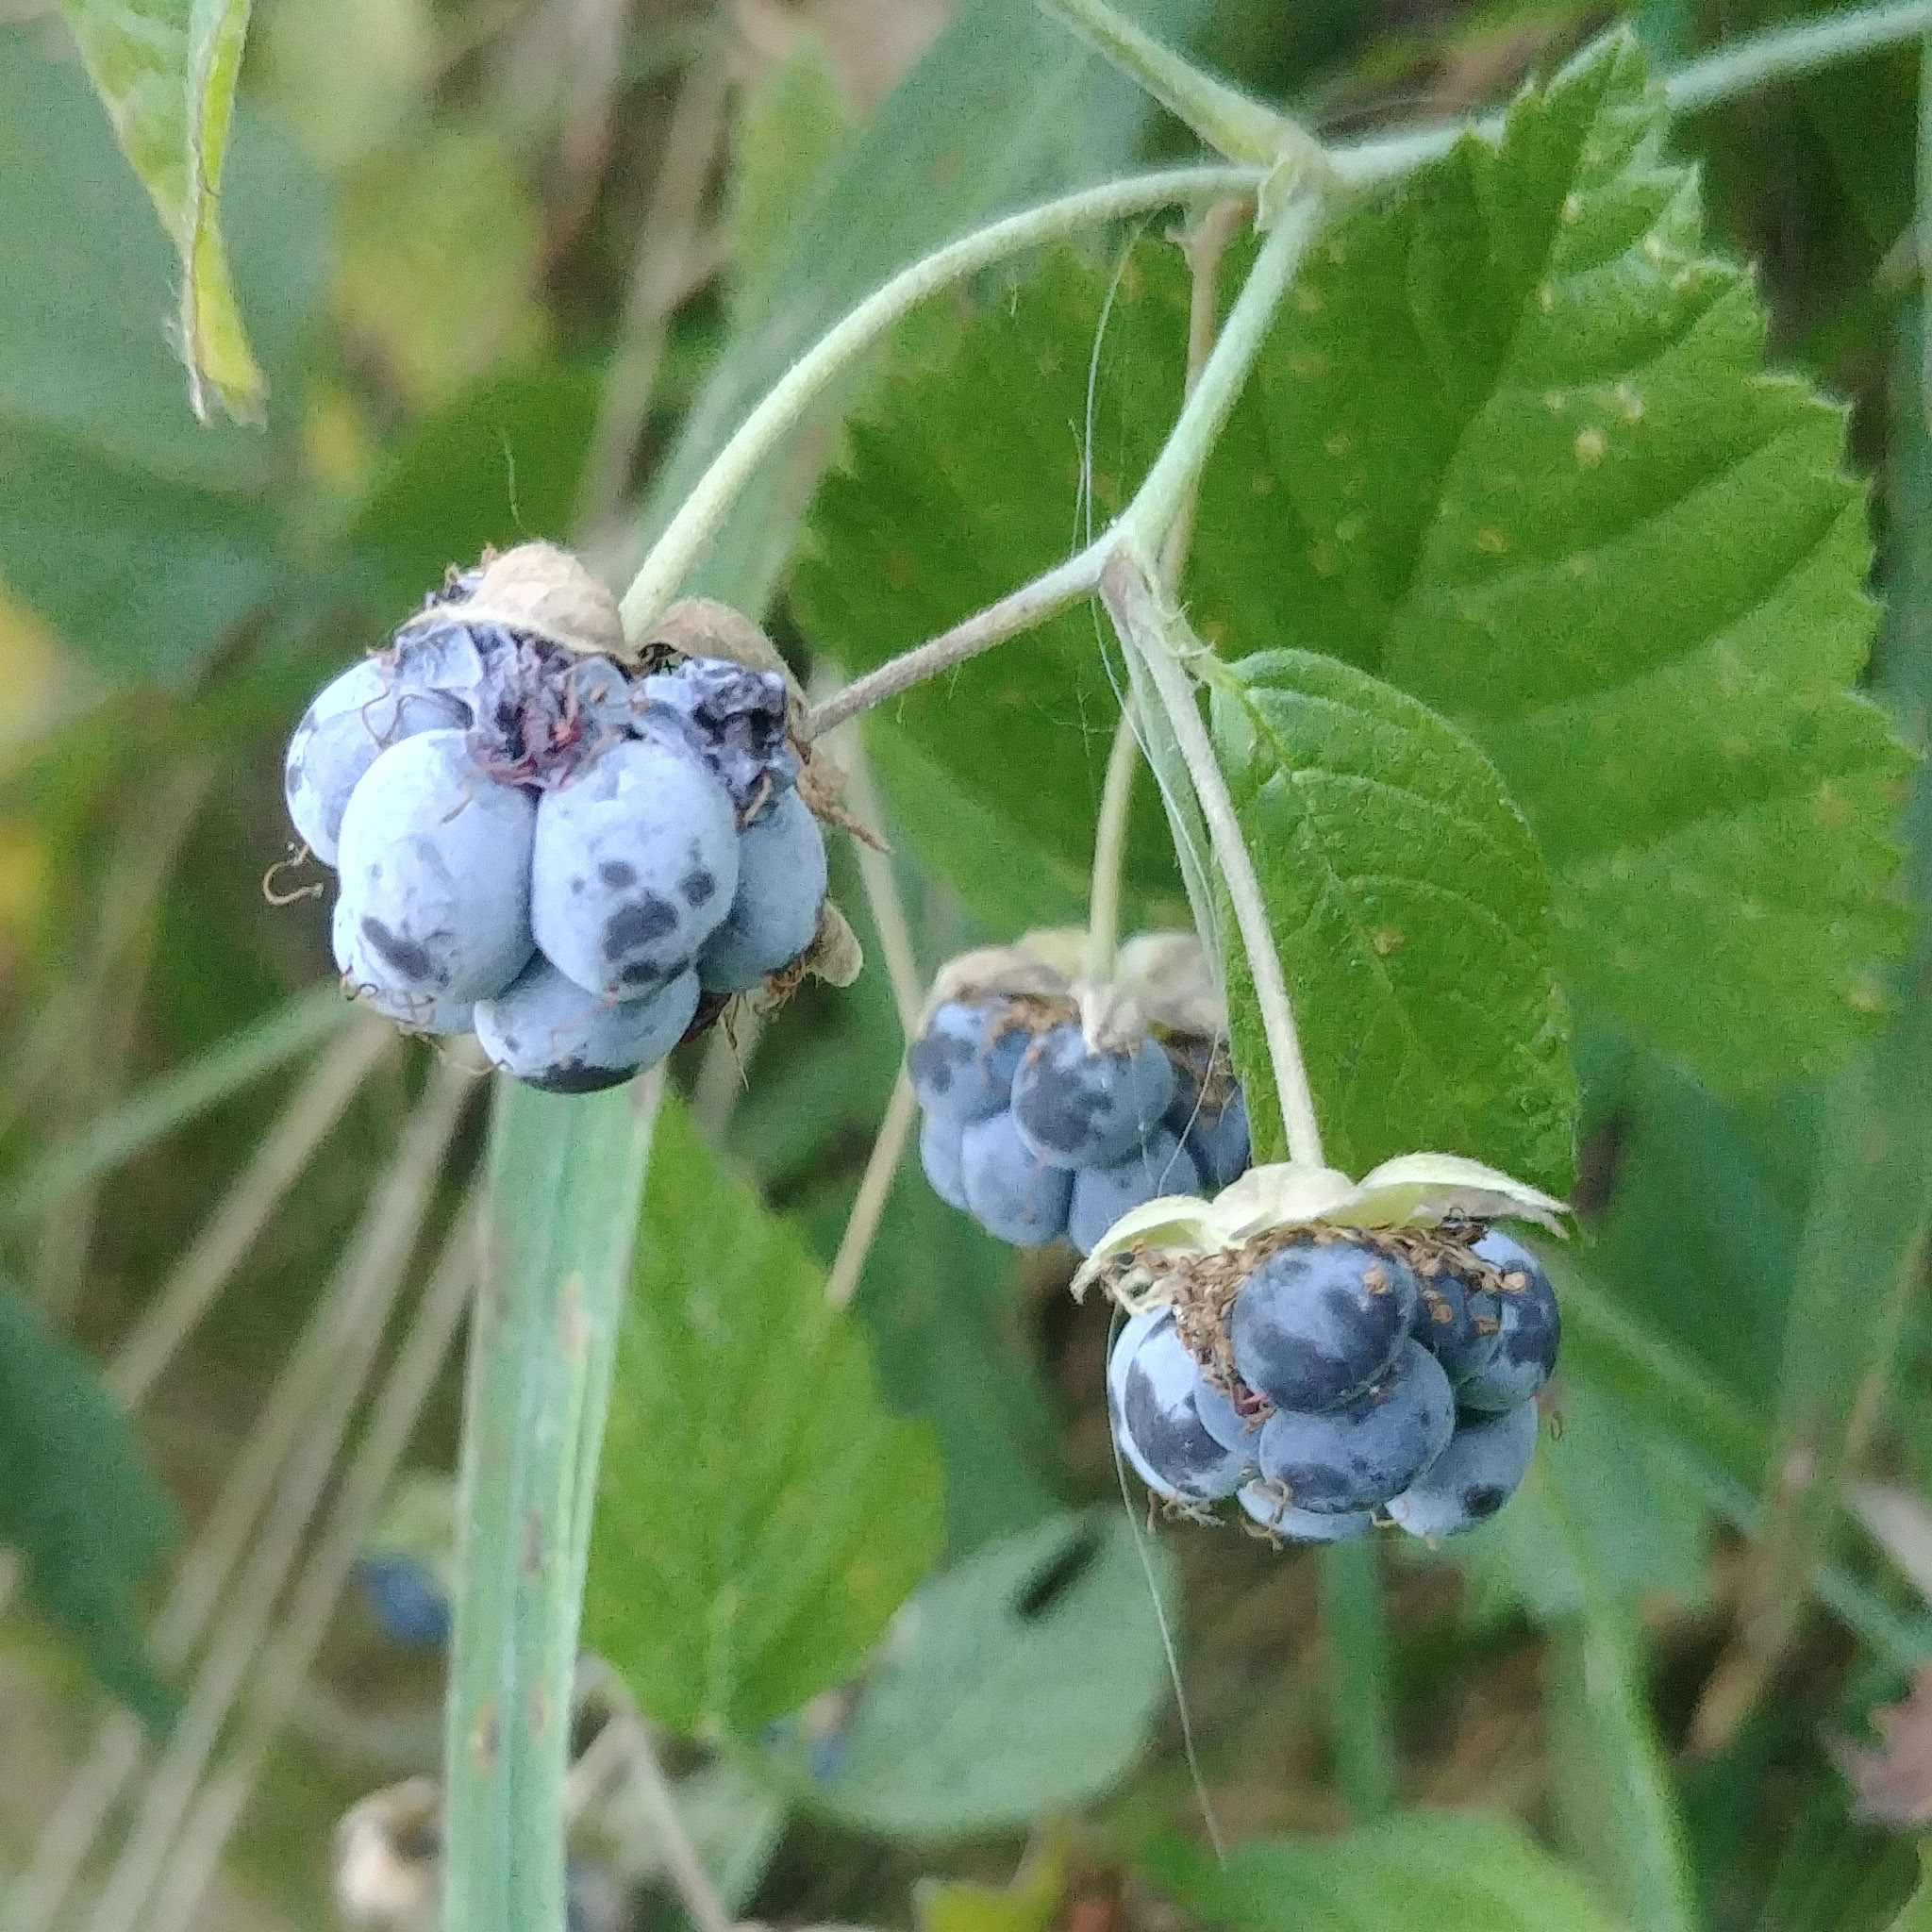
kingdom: Plantae
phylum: Tracheophyta
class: Magnoliopsida
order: Rosales
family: Rosaceae
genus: Rubus
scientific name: Rubus caesius
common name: Dewberry
